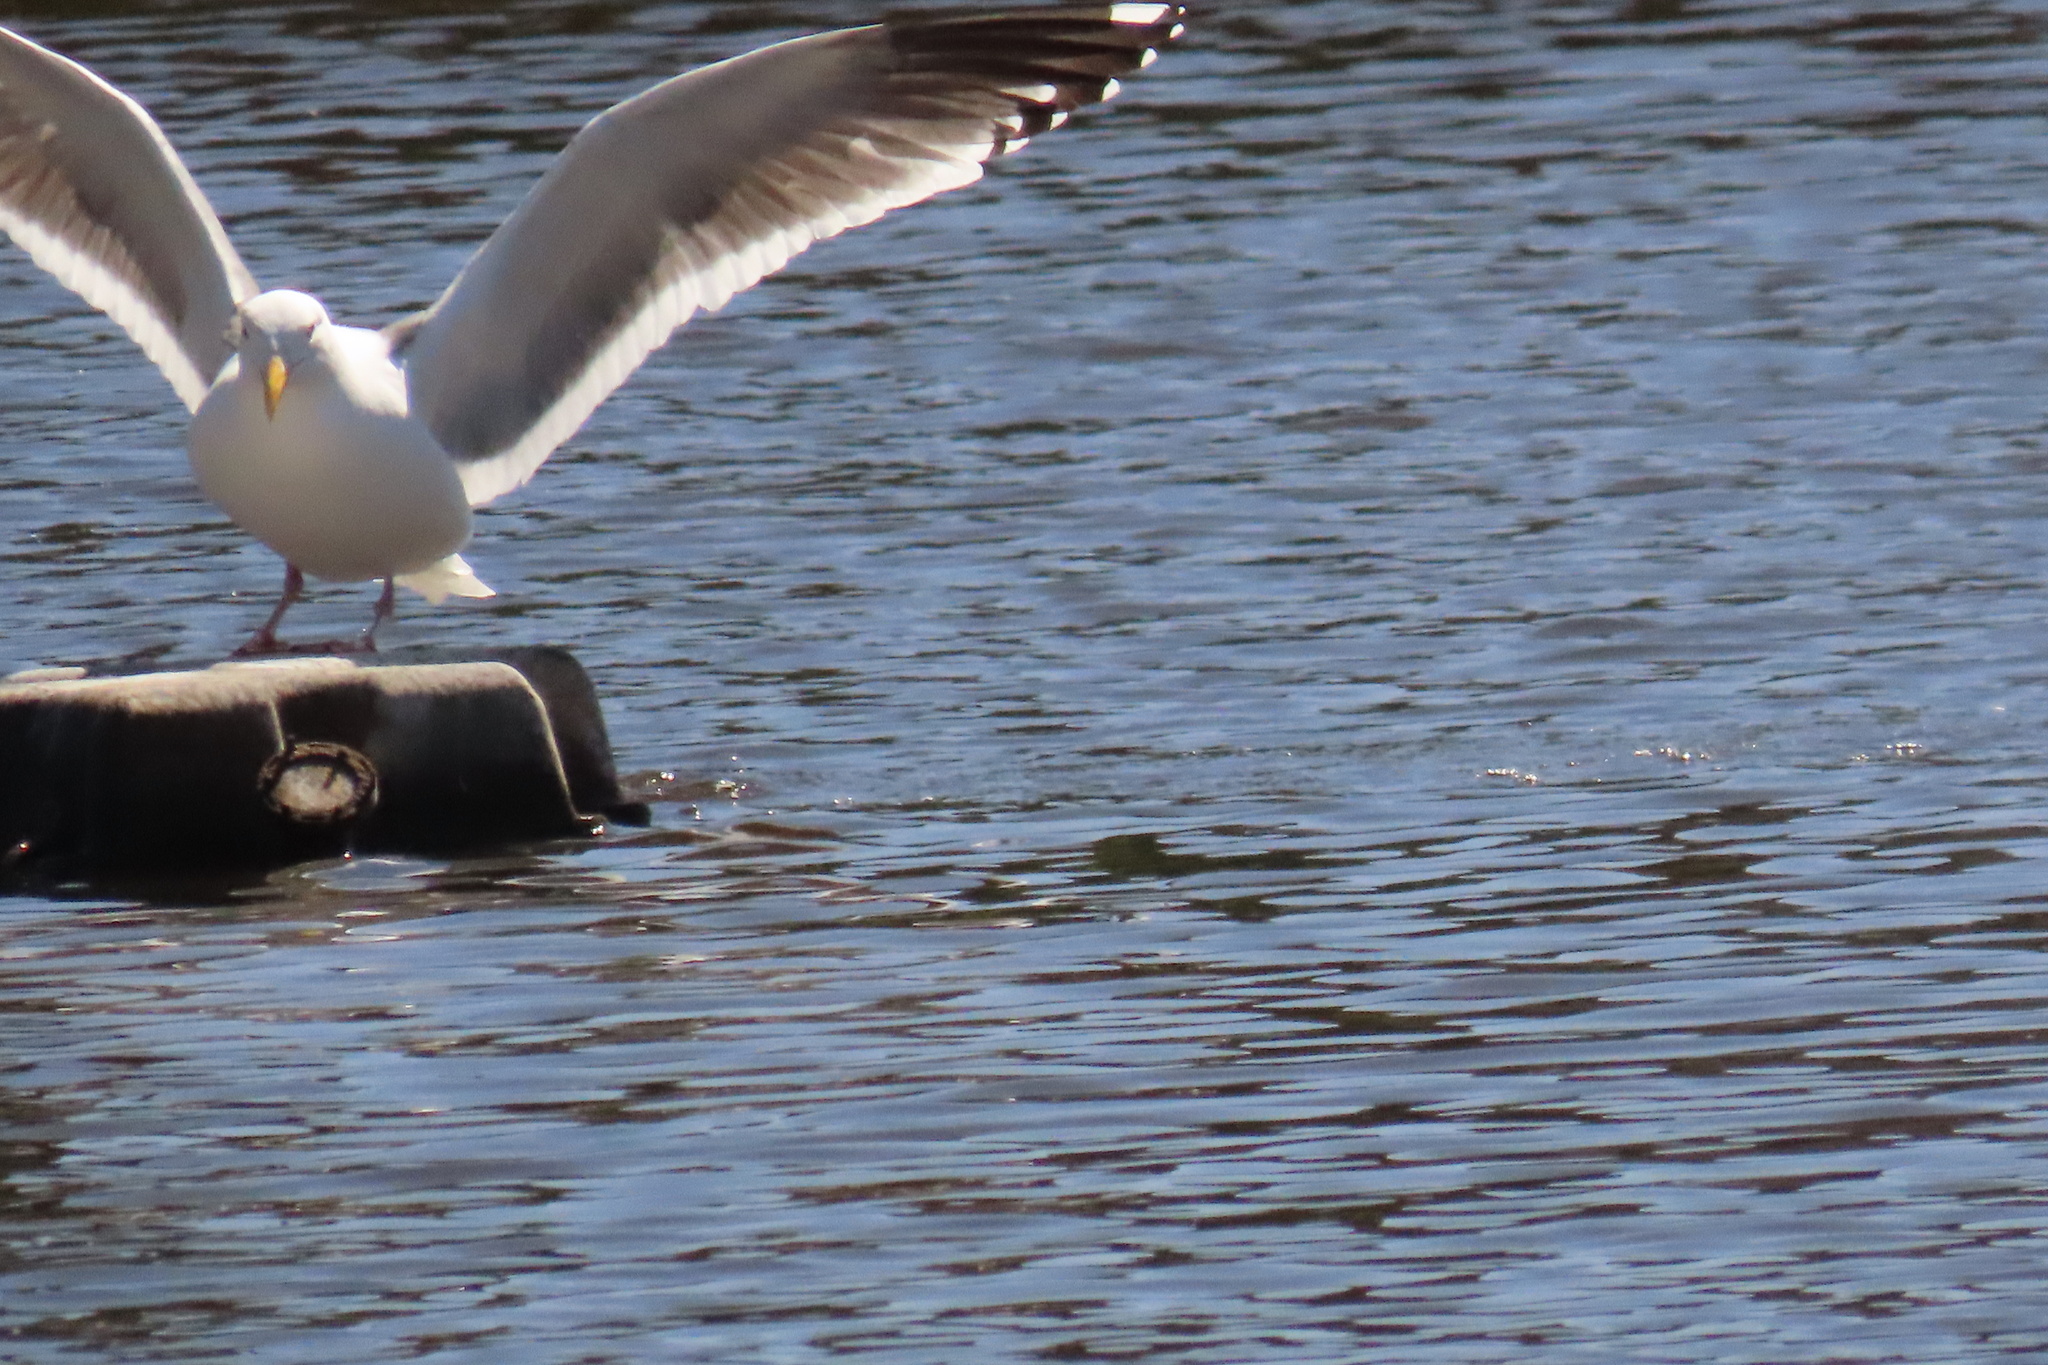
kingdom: Animalia
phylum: Chordata
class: Aves
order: Charadriiformes
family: Laridae
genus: Larus
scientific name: Larus occidentalis
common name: Western gull
